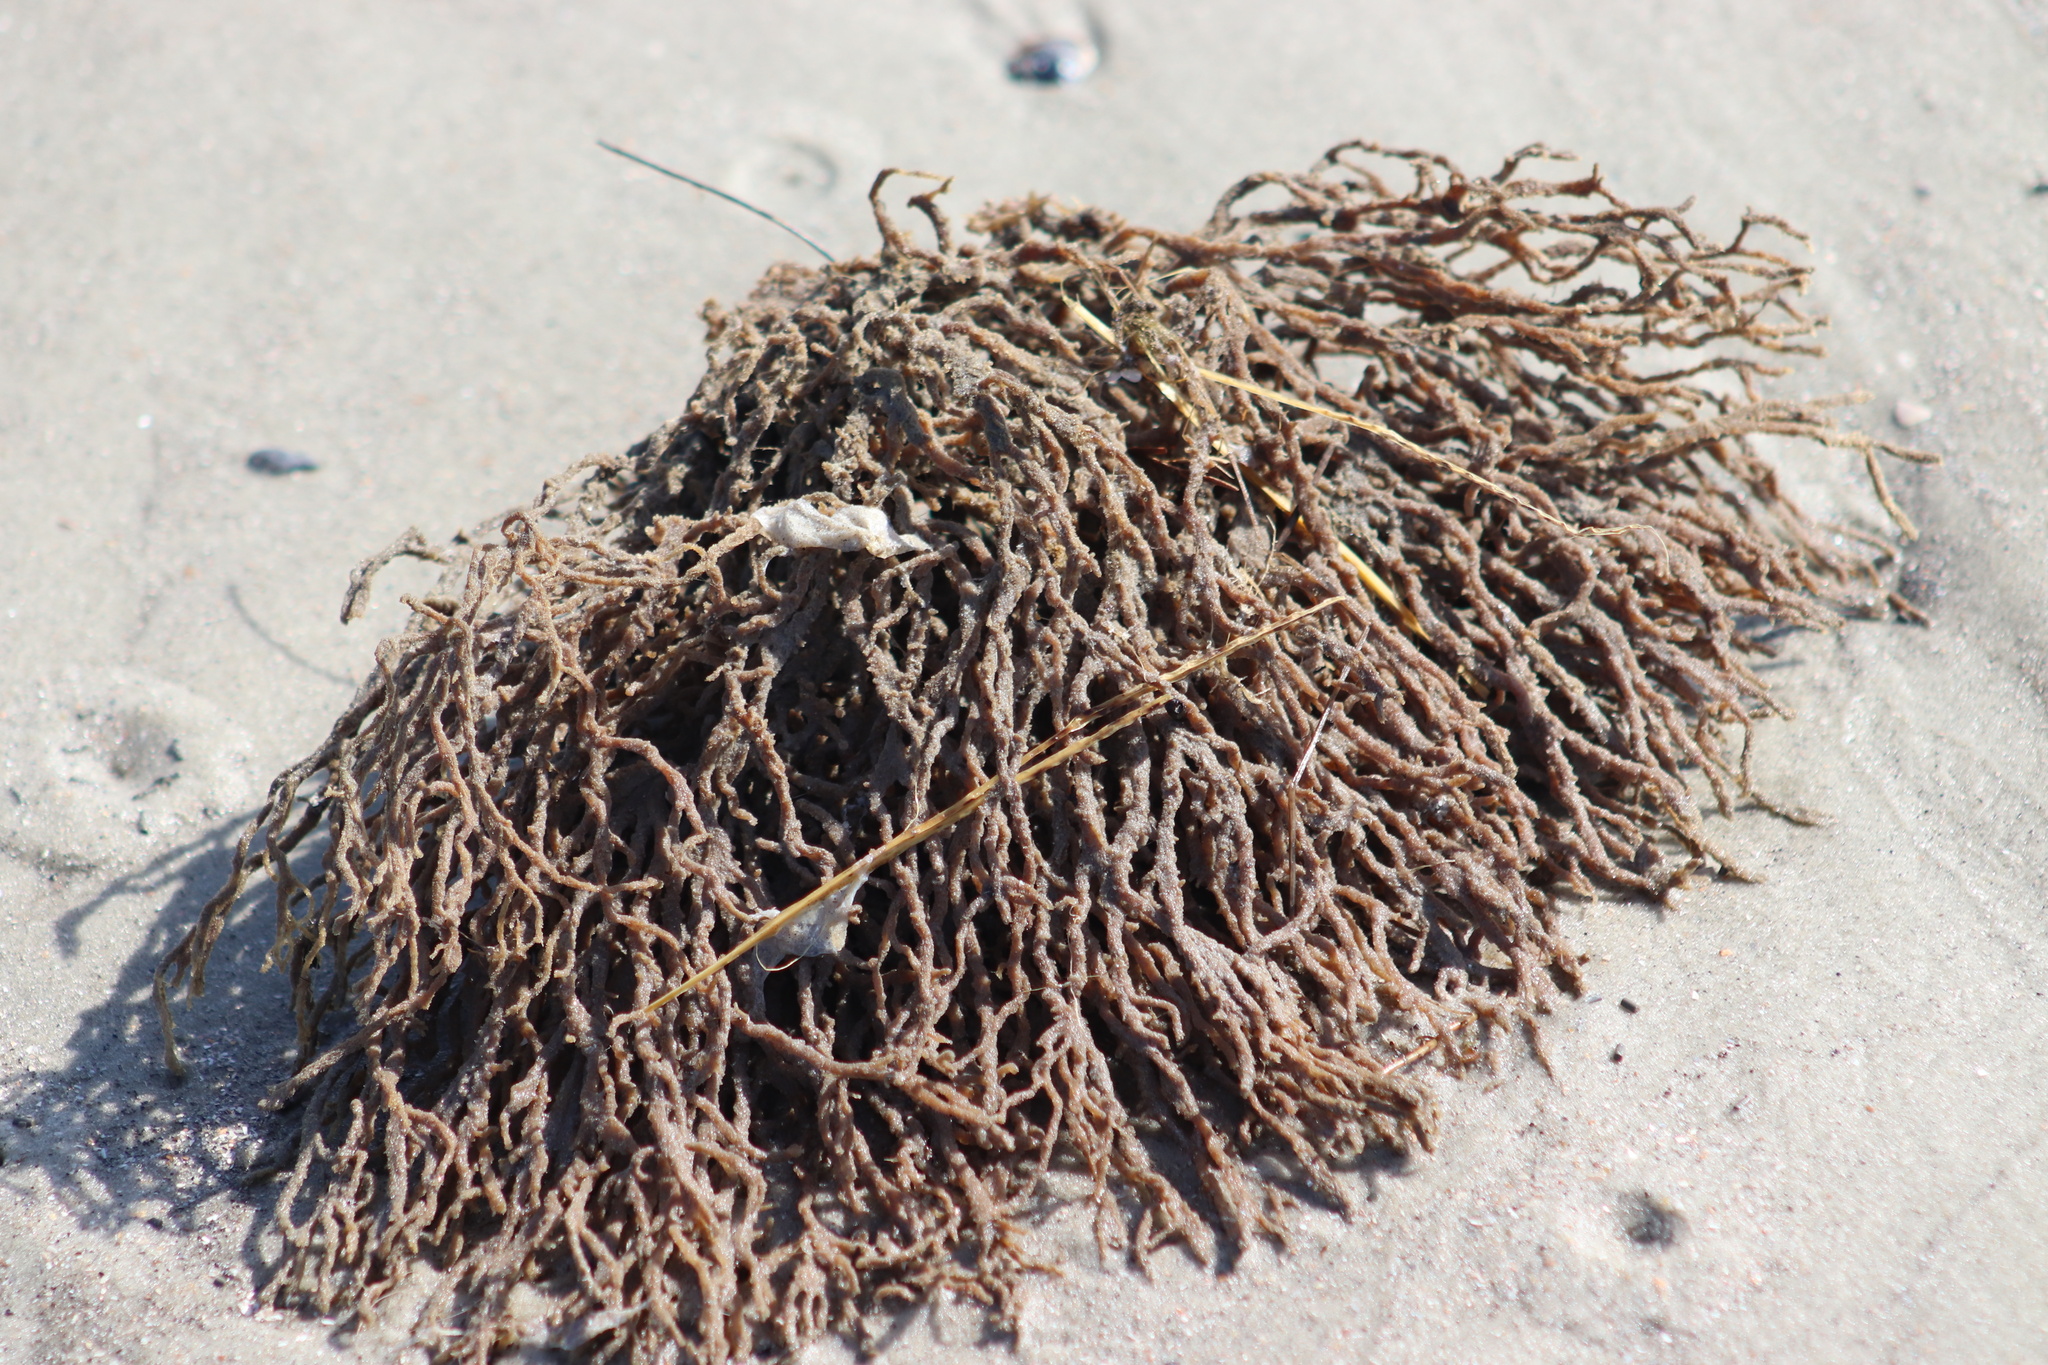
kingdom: Animalia
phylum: Porifera
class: Demospongiae
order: Poecilosclerida
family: Microcionidae
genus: Clathria
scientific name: Clathria prolifera
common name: Red beard sponge
